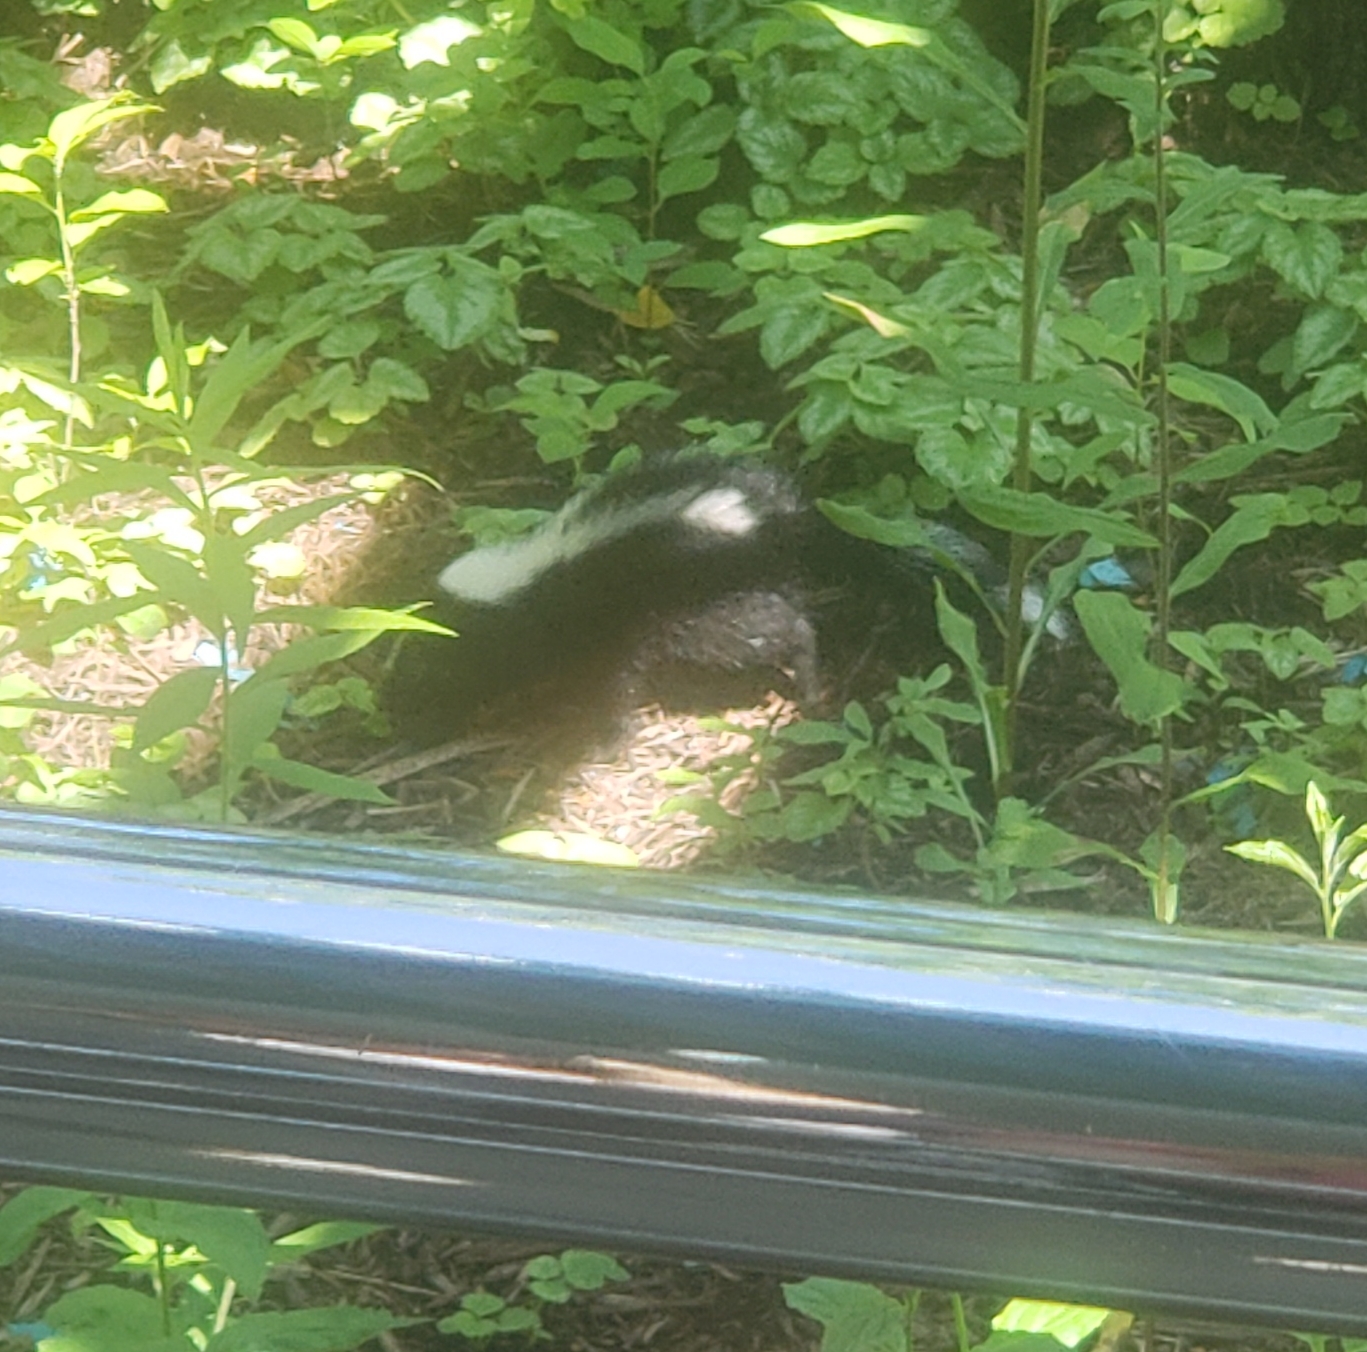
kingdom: Animalia
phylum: Chordata
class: Mammalia
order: Carnivora
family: Mephitidae
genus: Mephitis
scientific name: Mephitis mephitis
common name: Striped skunk
